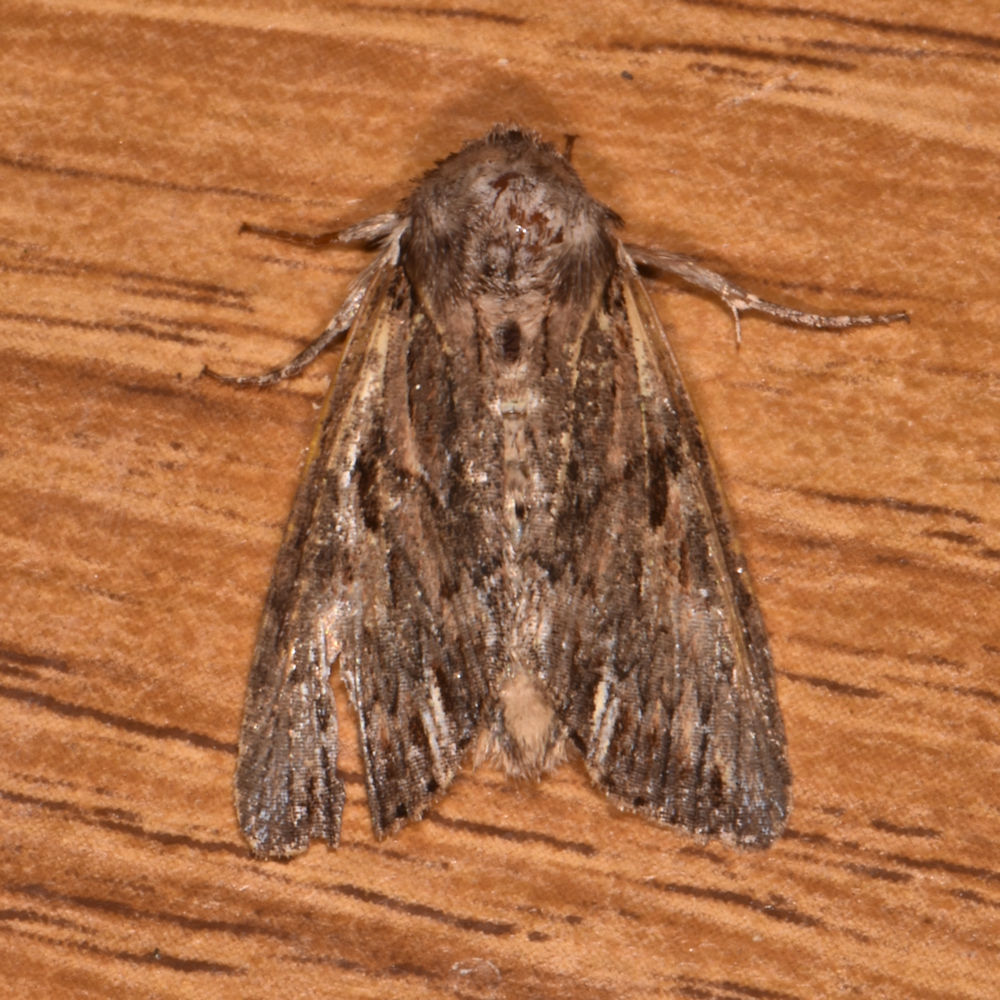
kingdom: Animalia
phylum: Arthropoda
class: Insecta
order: Lepidoptera
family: Noctuidae
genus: Achatia
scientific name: Achatia confusa
